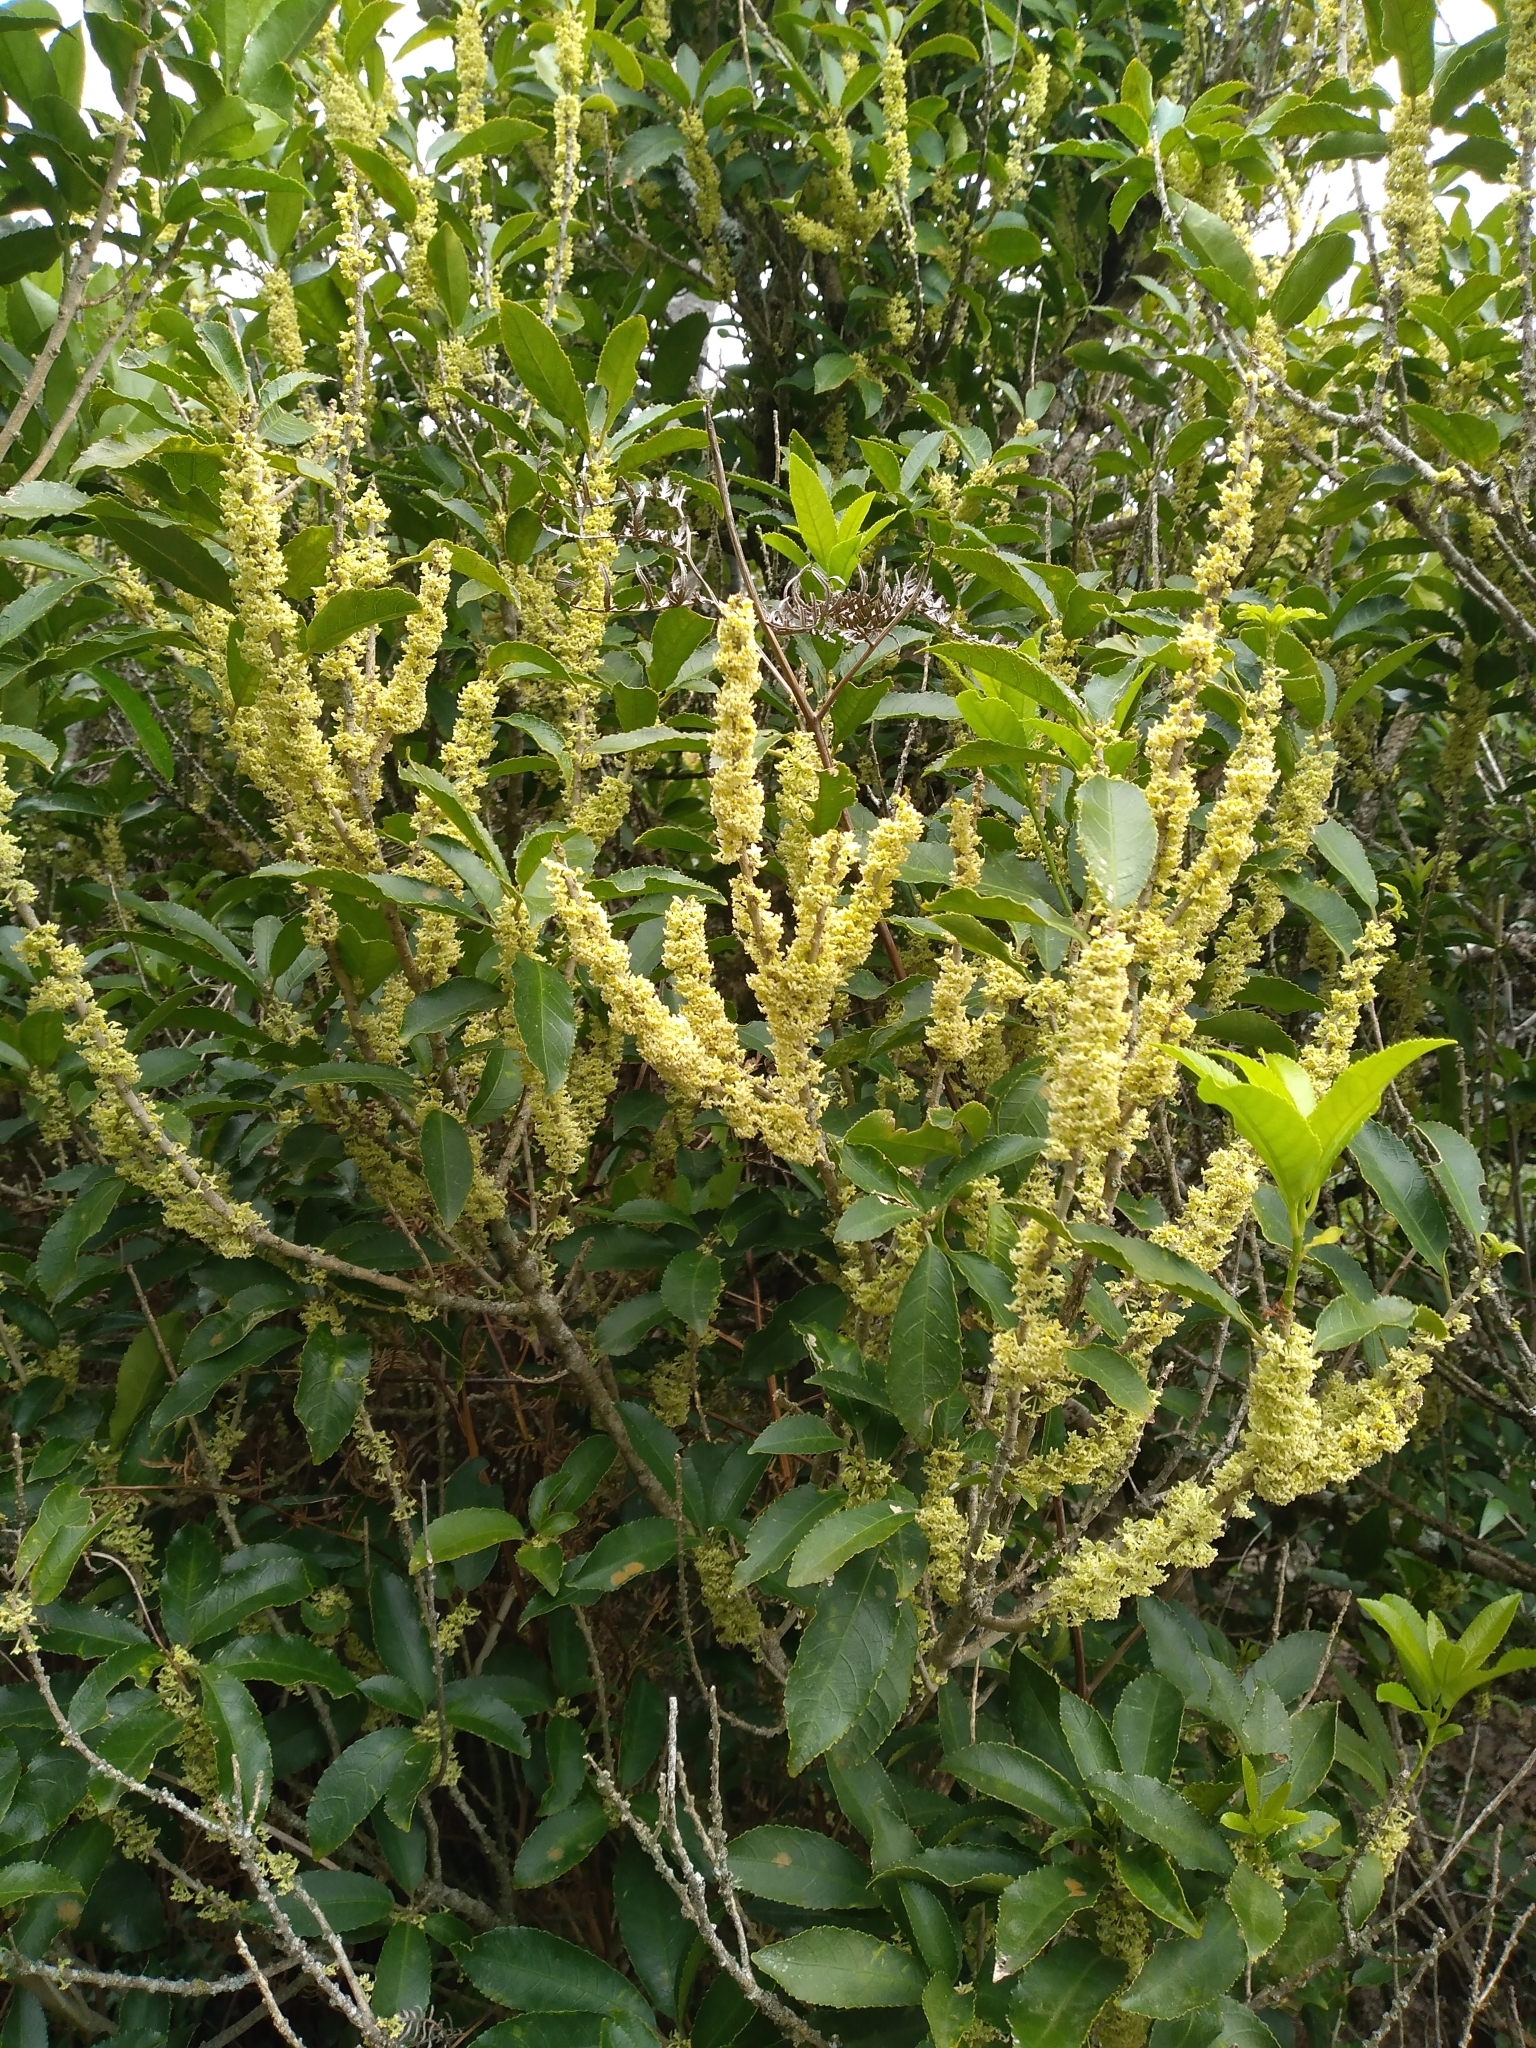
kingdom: Plantae
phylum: Tracheophyta
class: Magnoliopsida
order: Malpighiales
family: Violaceae
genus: Melicytus
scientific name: Melicytus ramiflorus
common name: Mahoe
